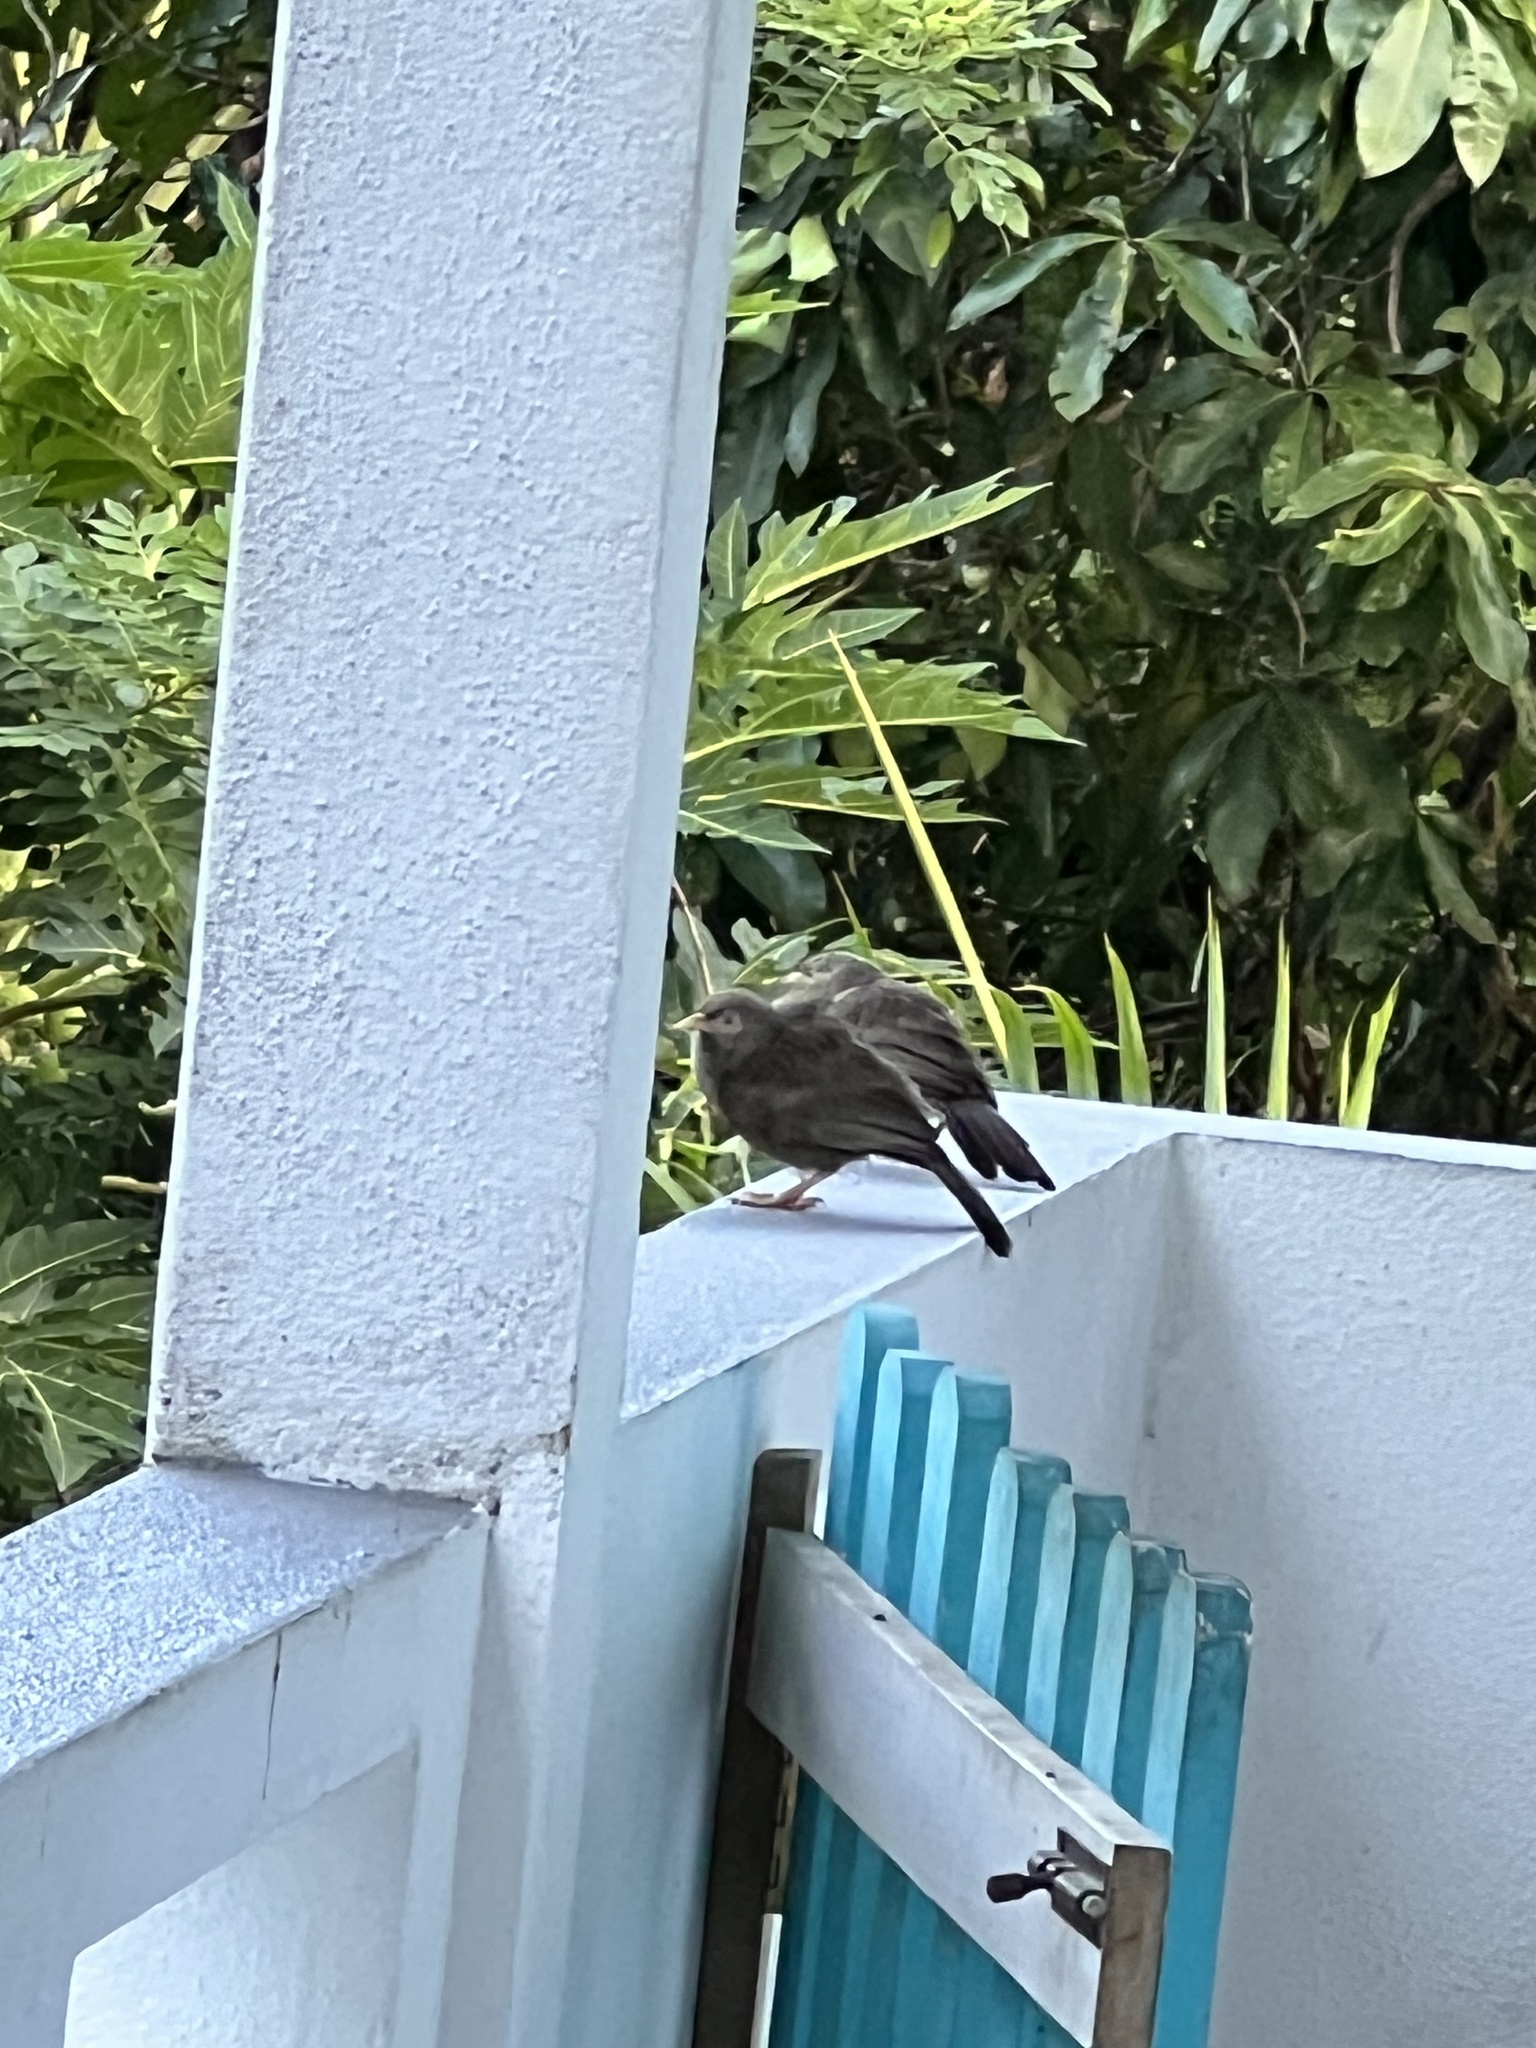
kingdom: Animalia
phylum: Chordata
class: Aves
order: Passeriformes
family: Leiothrichidae
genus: Turdoides
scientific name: Turdoides affinis
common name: Yellow-billed babbler
